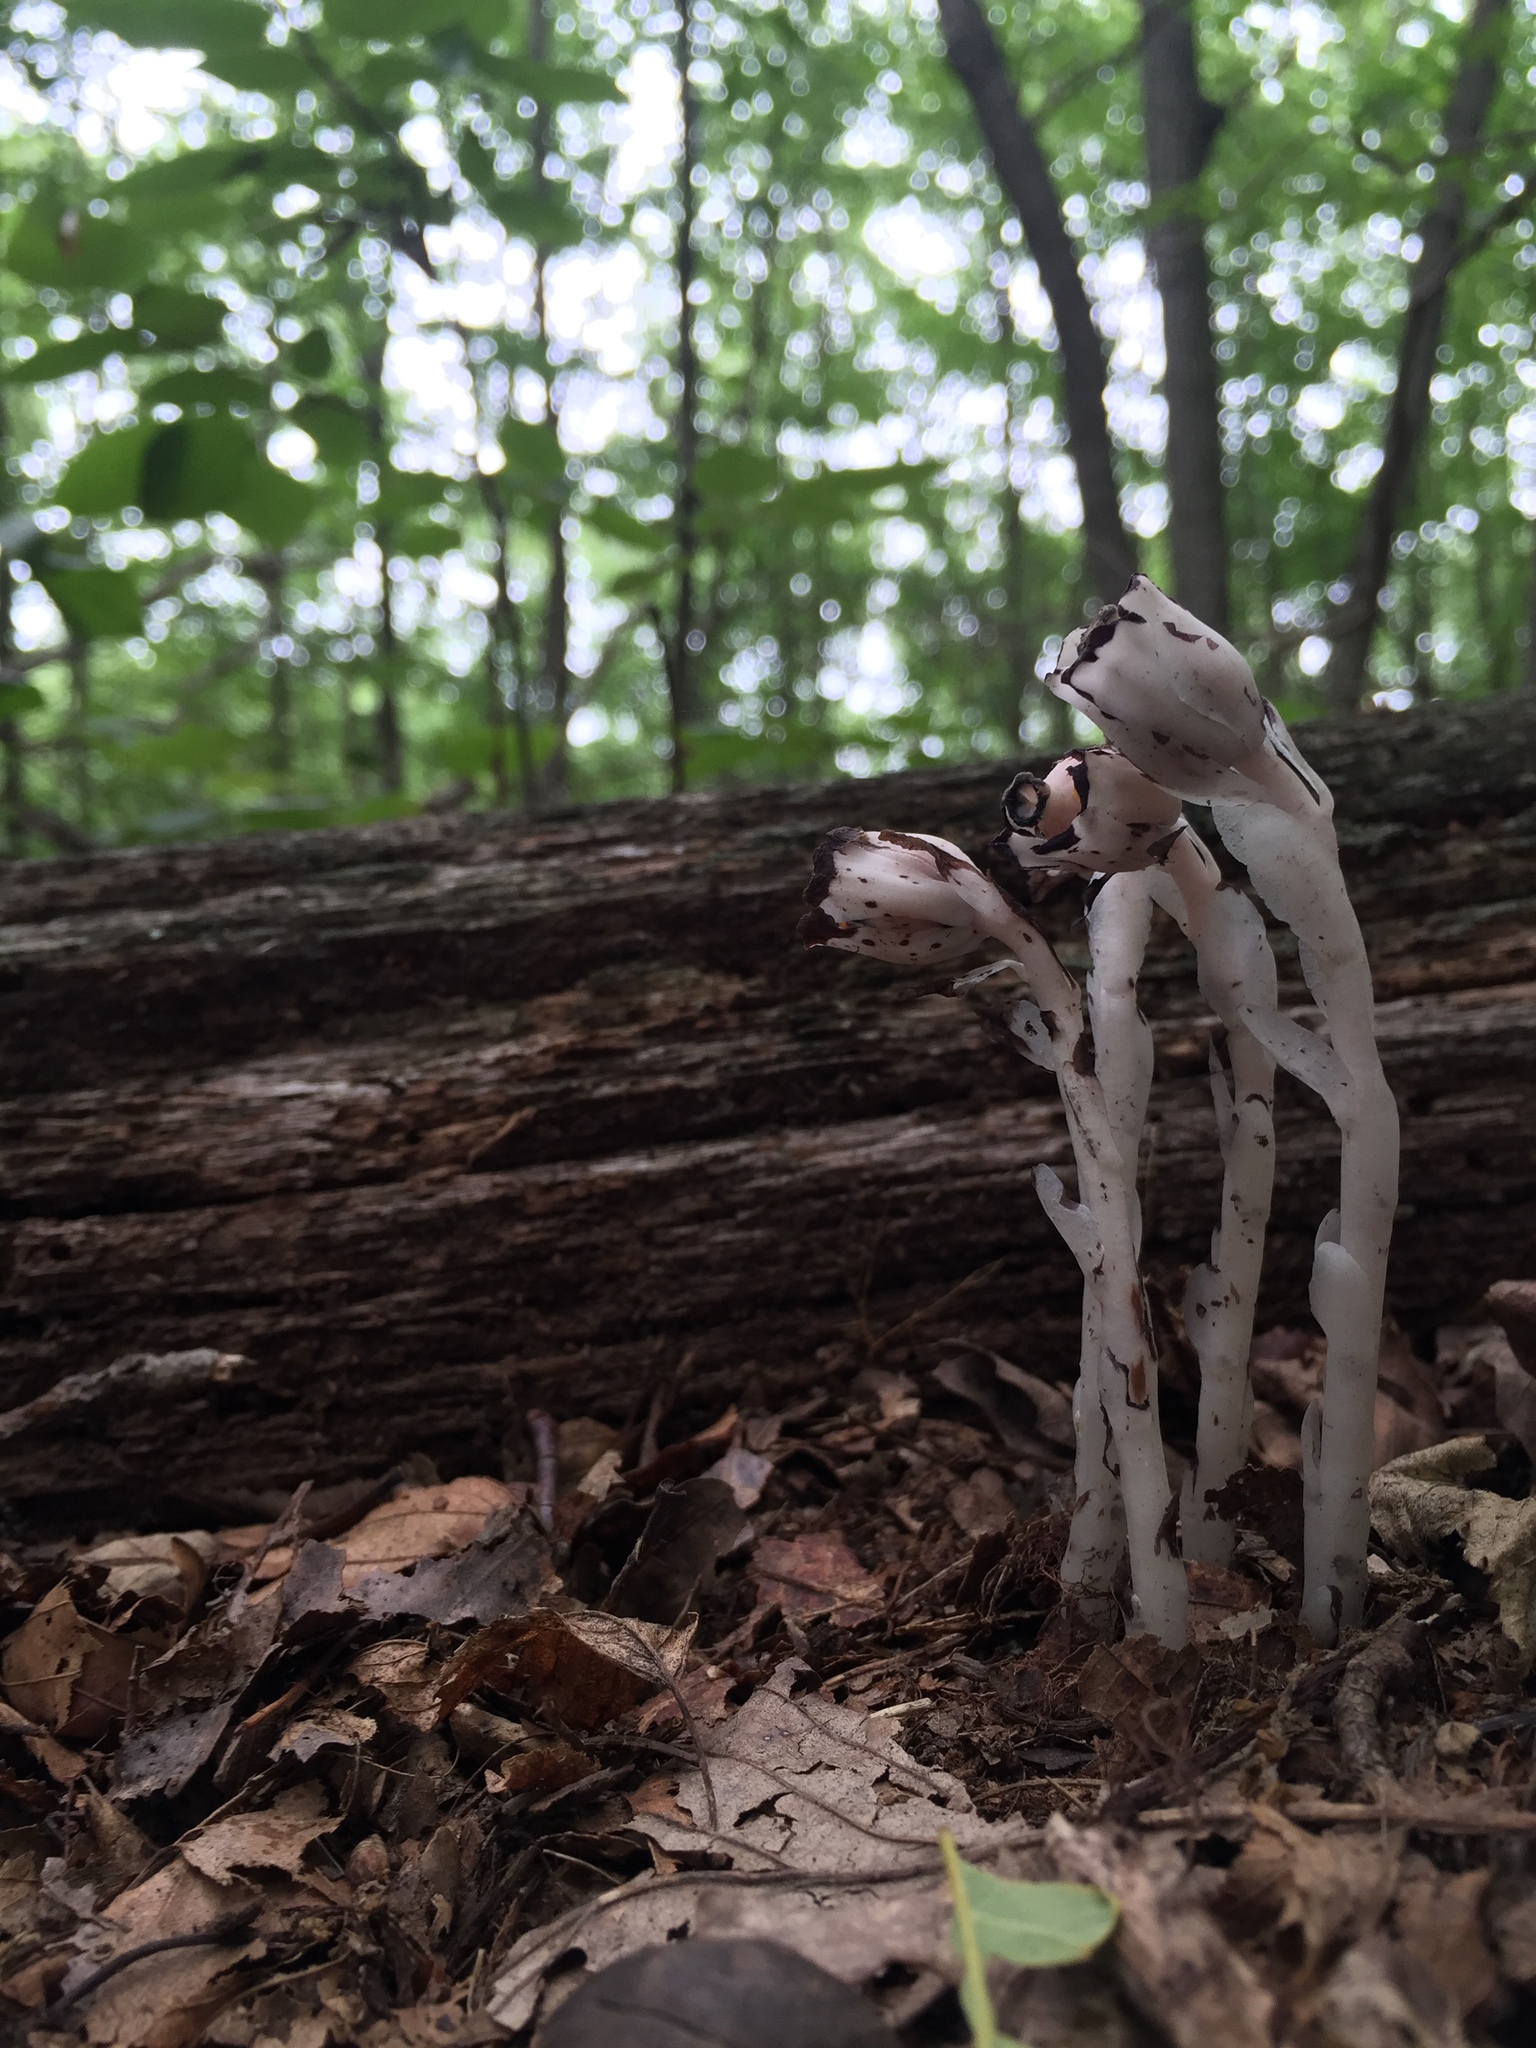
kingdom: Plantae
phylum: Tracheophyta
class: Magnoliopsida
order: Ericales
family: Ericaceae
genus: Monotropa
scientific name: Monotropa uniflora
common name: Convulsion root
